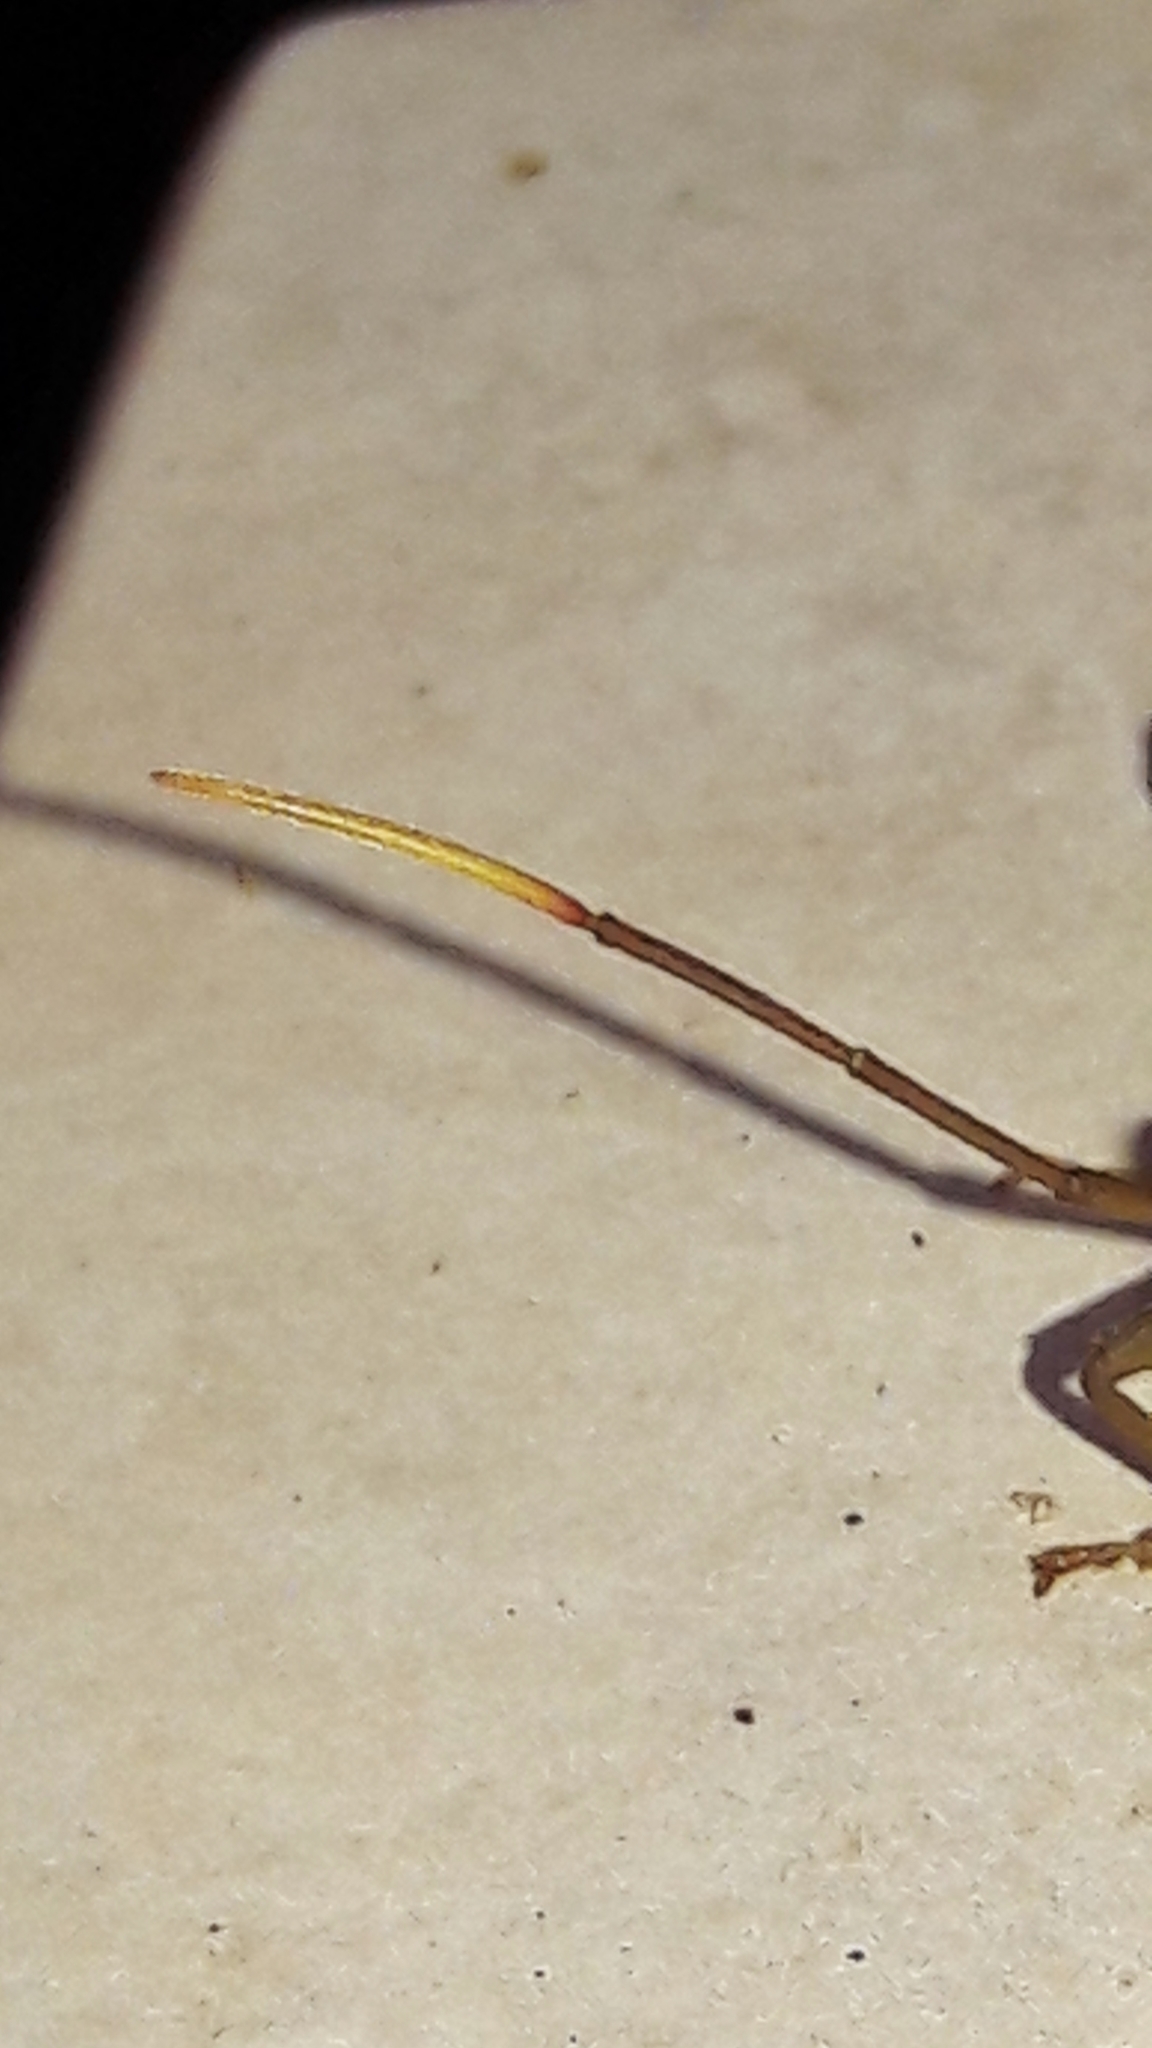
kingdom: Animalia
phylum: Arthropoda
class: Insecta
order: Hemiptera
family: Coreidae
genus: Melucha
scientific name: Melucha phyllocnemis
